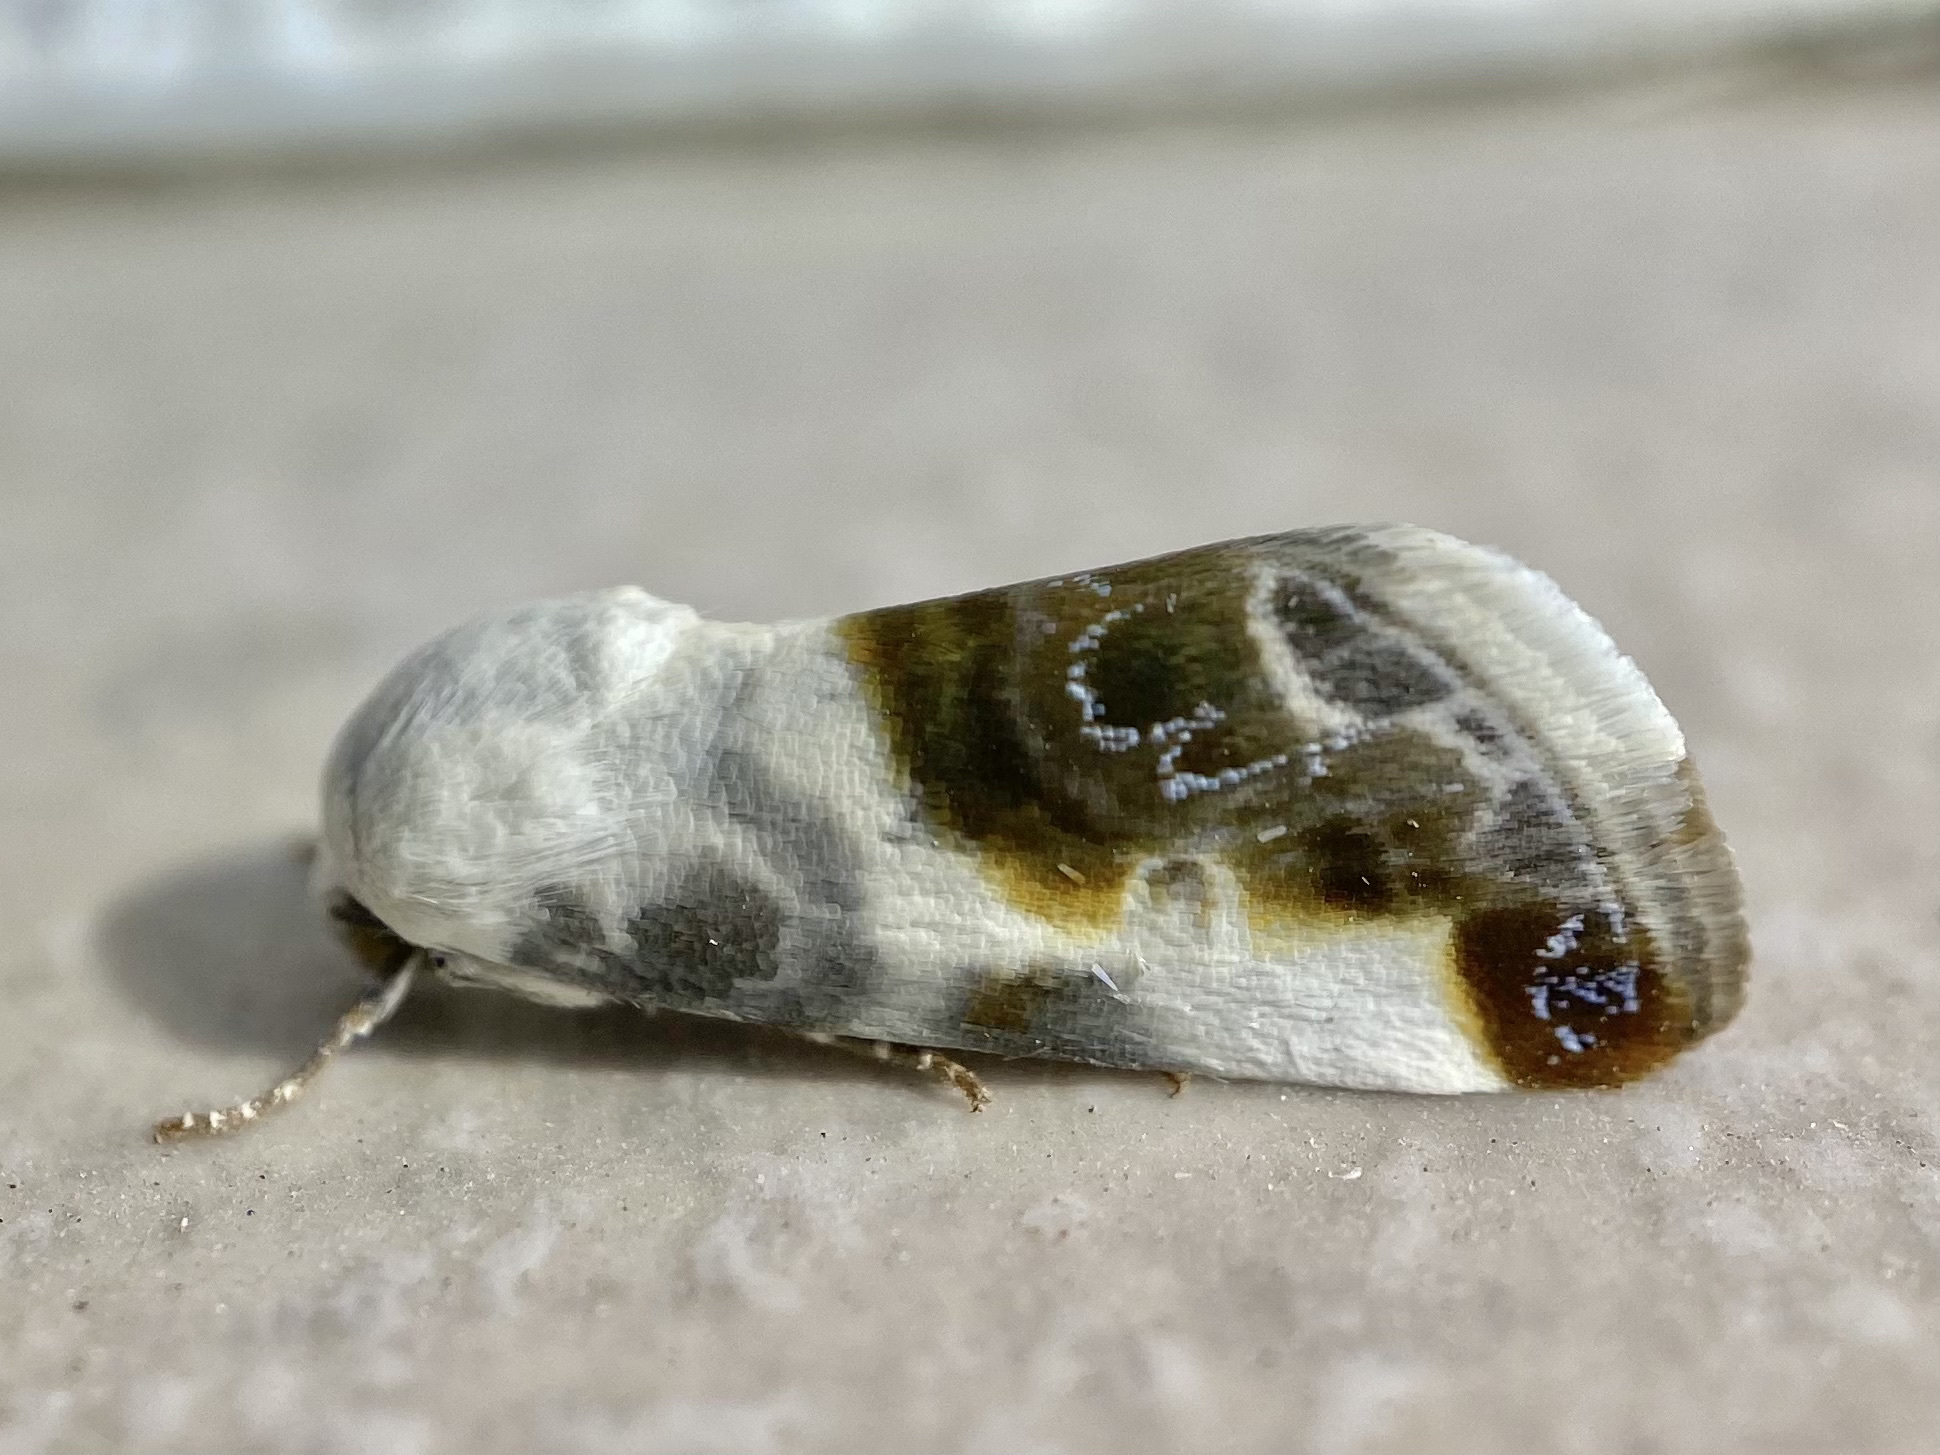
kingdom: Animalia
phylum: Arthropoda
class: Insecta
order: Lepidoptera
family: Noctuidae
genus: Acontia
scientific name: Acontia cretata
